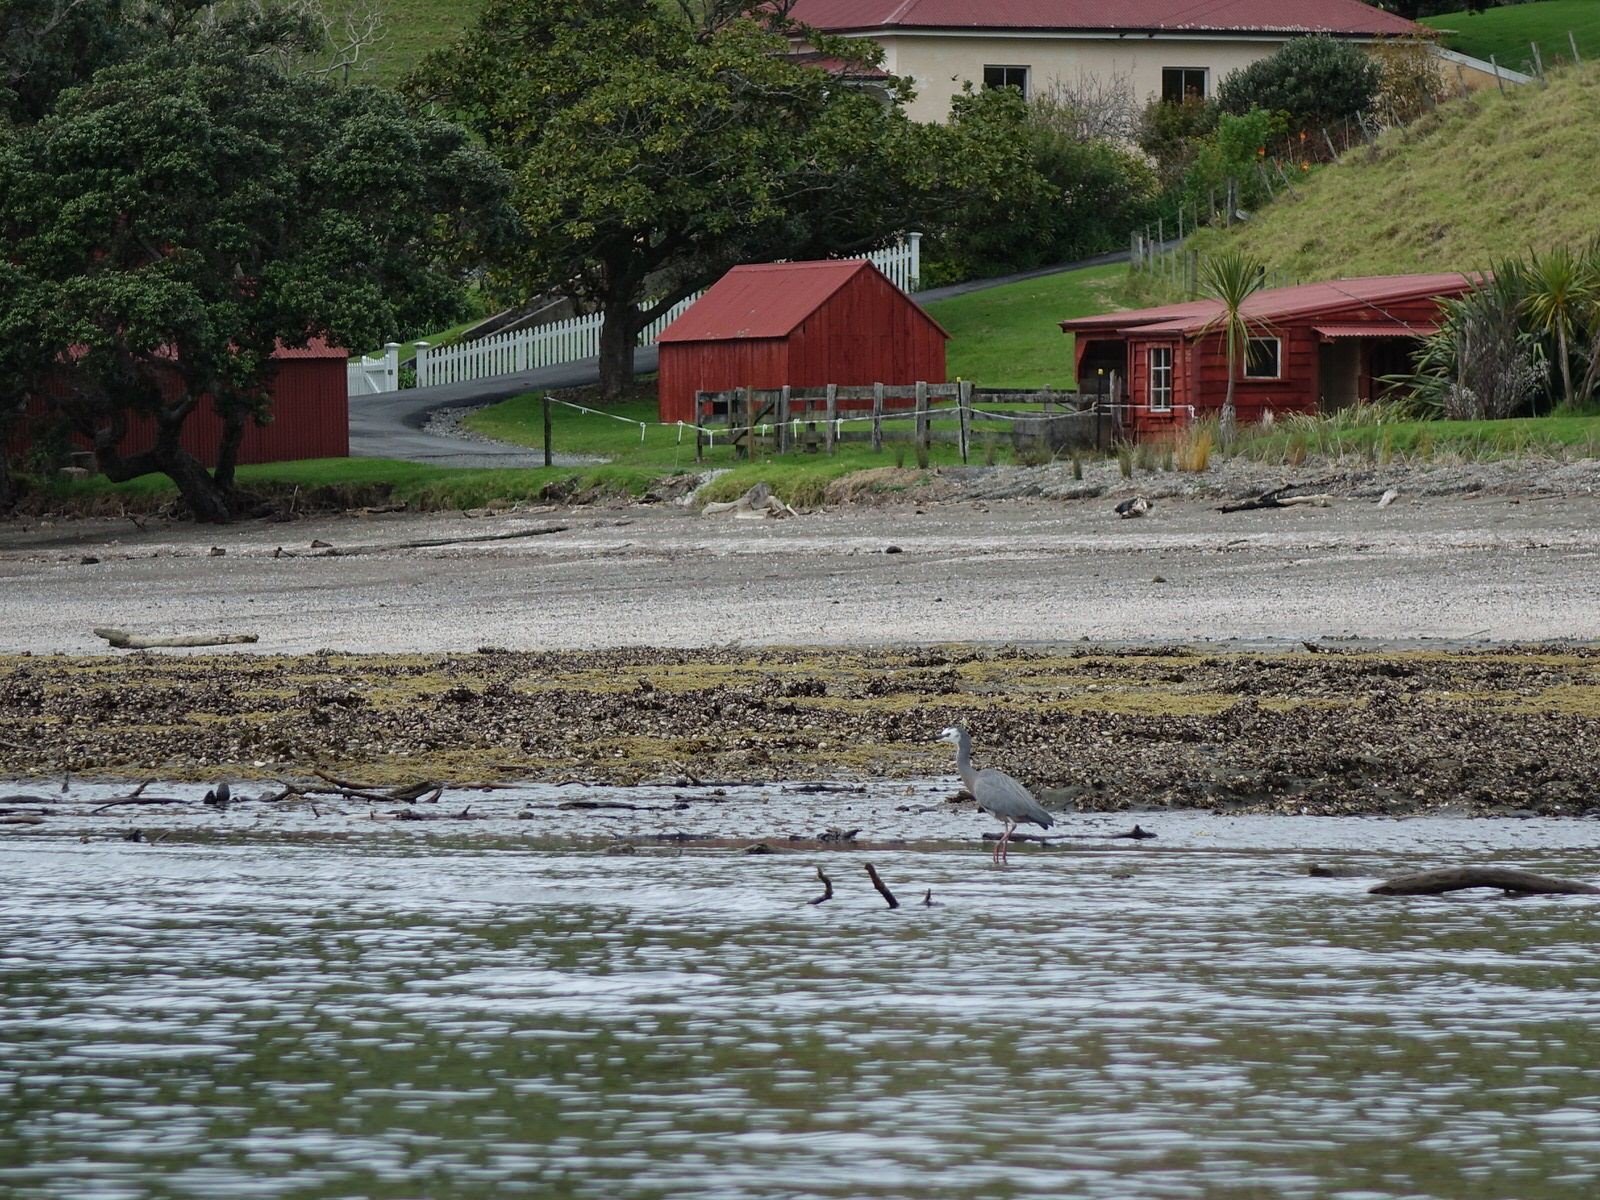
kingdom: Animalia
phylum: Chordata
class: Aves
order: Pelecaniformes
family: Ardeidae
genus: Egretta
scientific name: Egretta novaehollandiae
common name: White-faced heron
